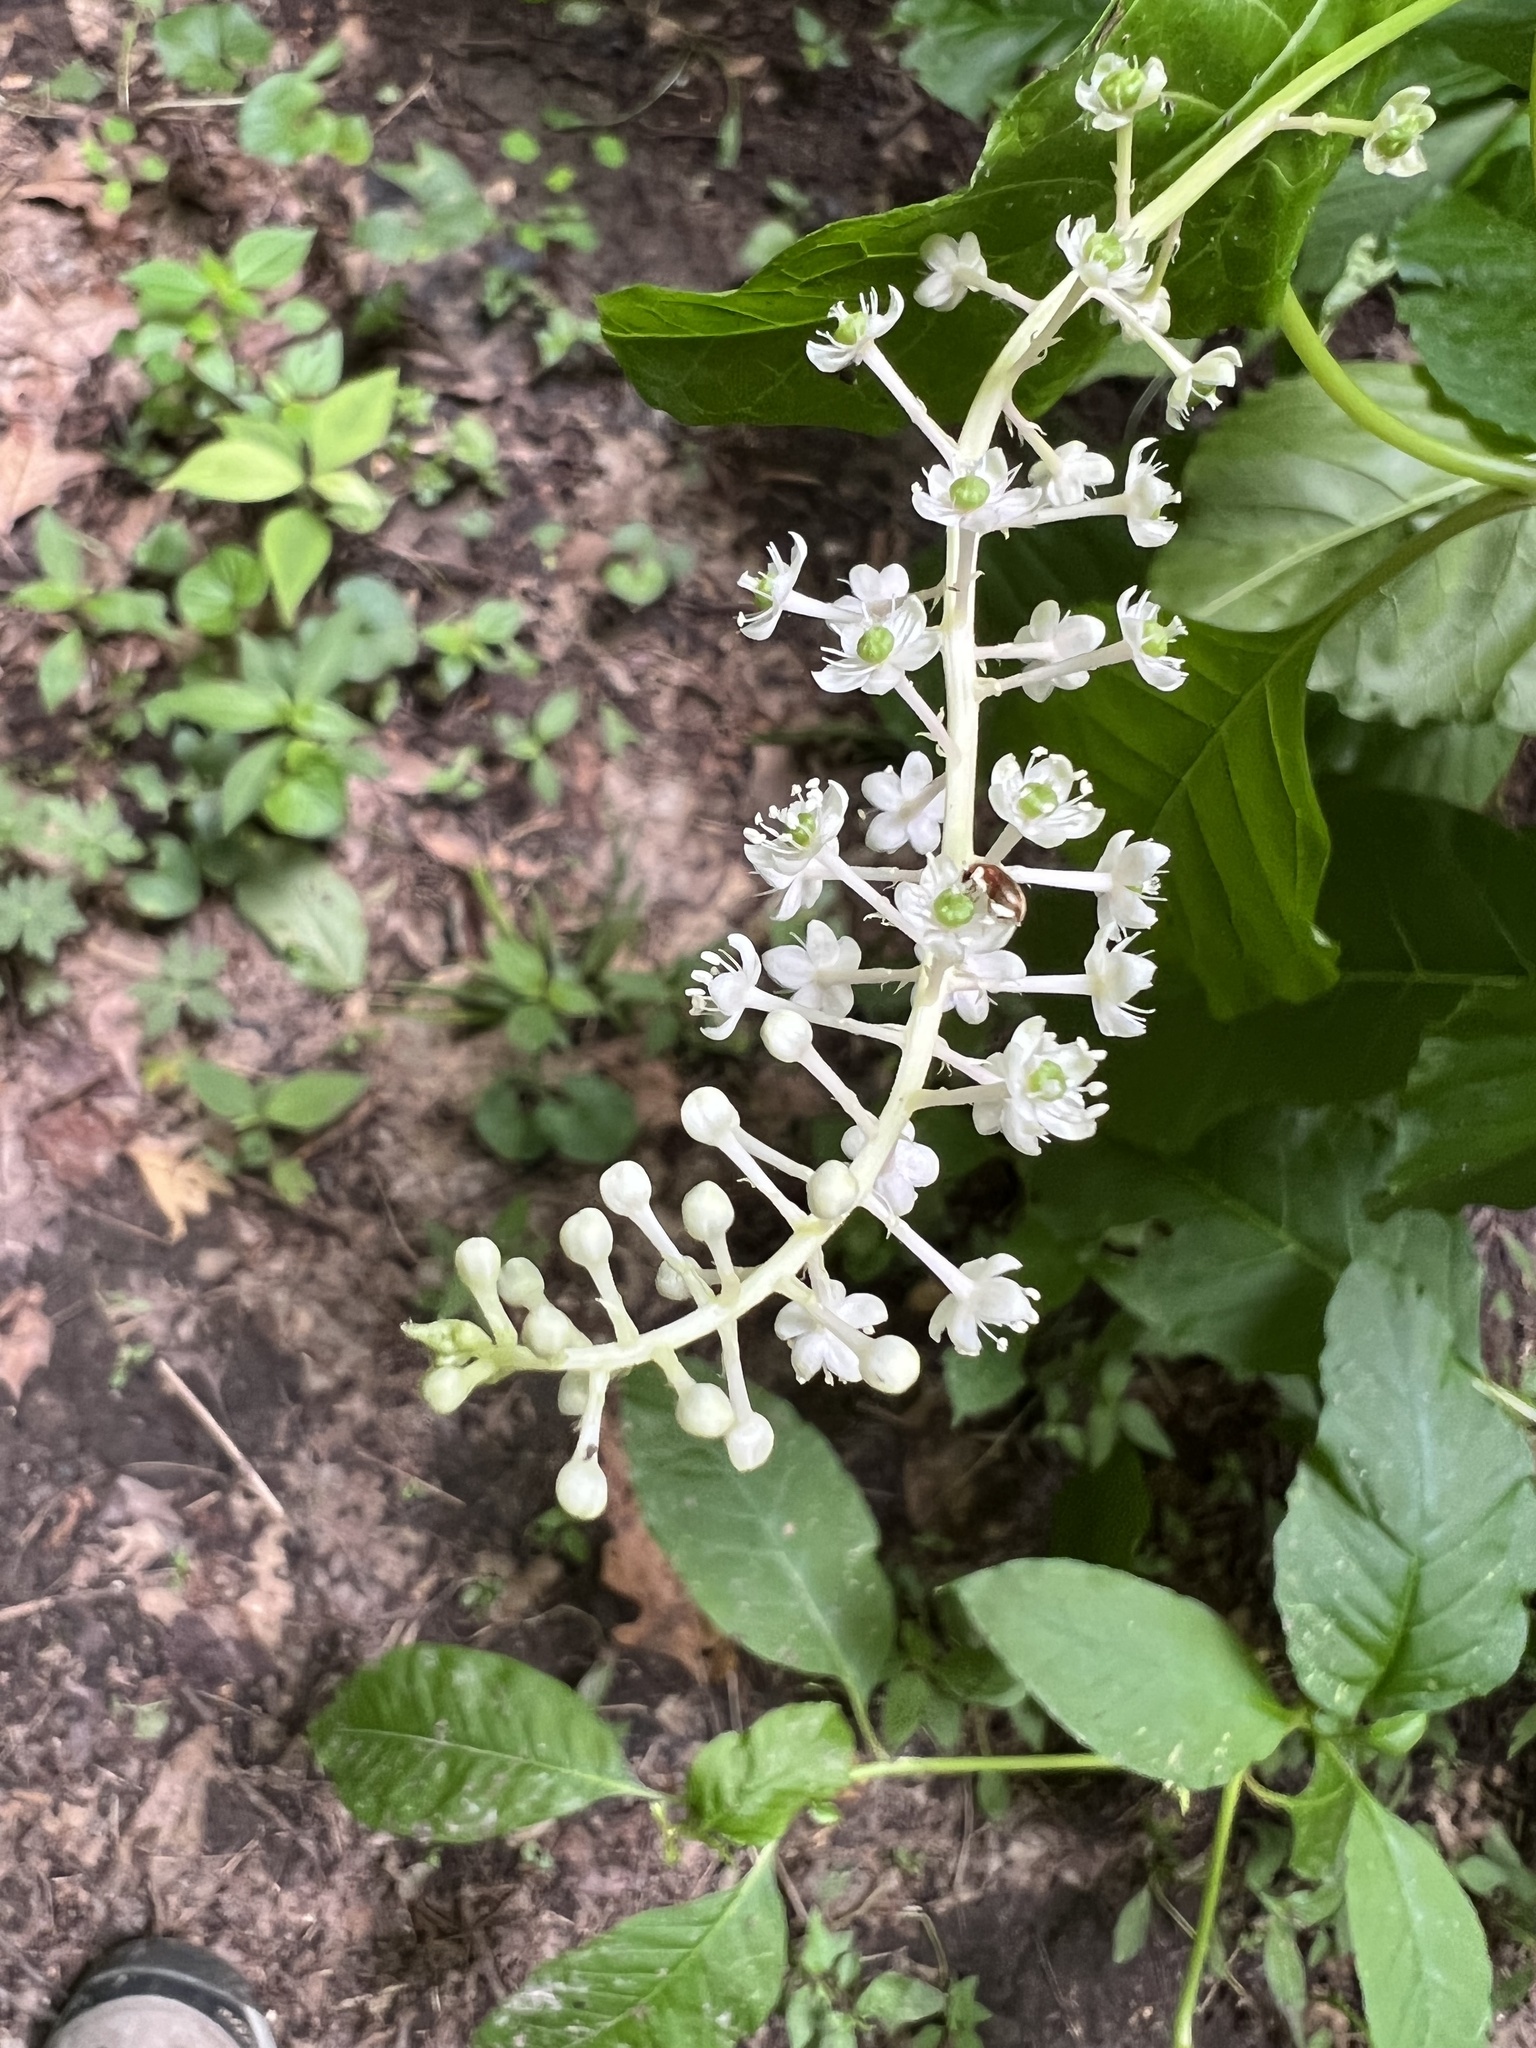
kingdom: Plantae
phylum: Tracheophyta
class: Magnoliopsida
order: Caryophyllales
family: Phytolaccaceae
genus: Phytolacca
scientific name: Phytolacca americana
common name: American pokeweed
